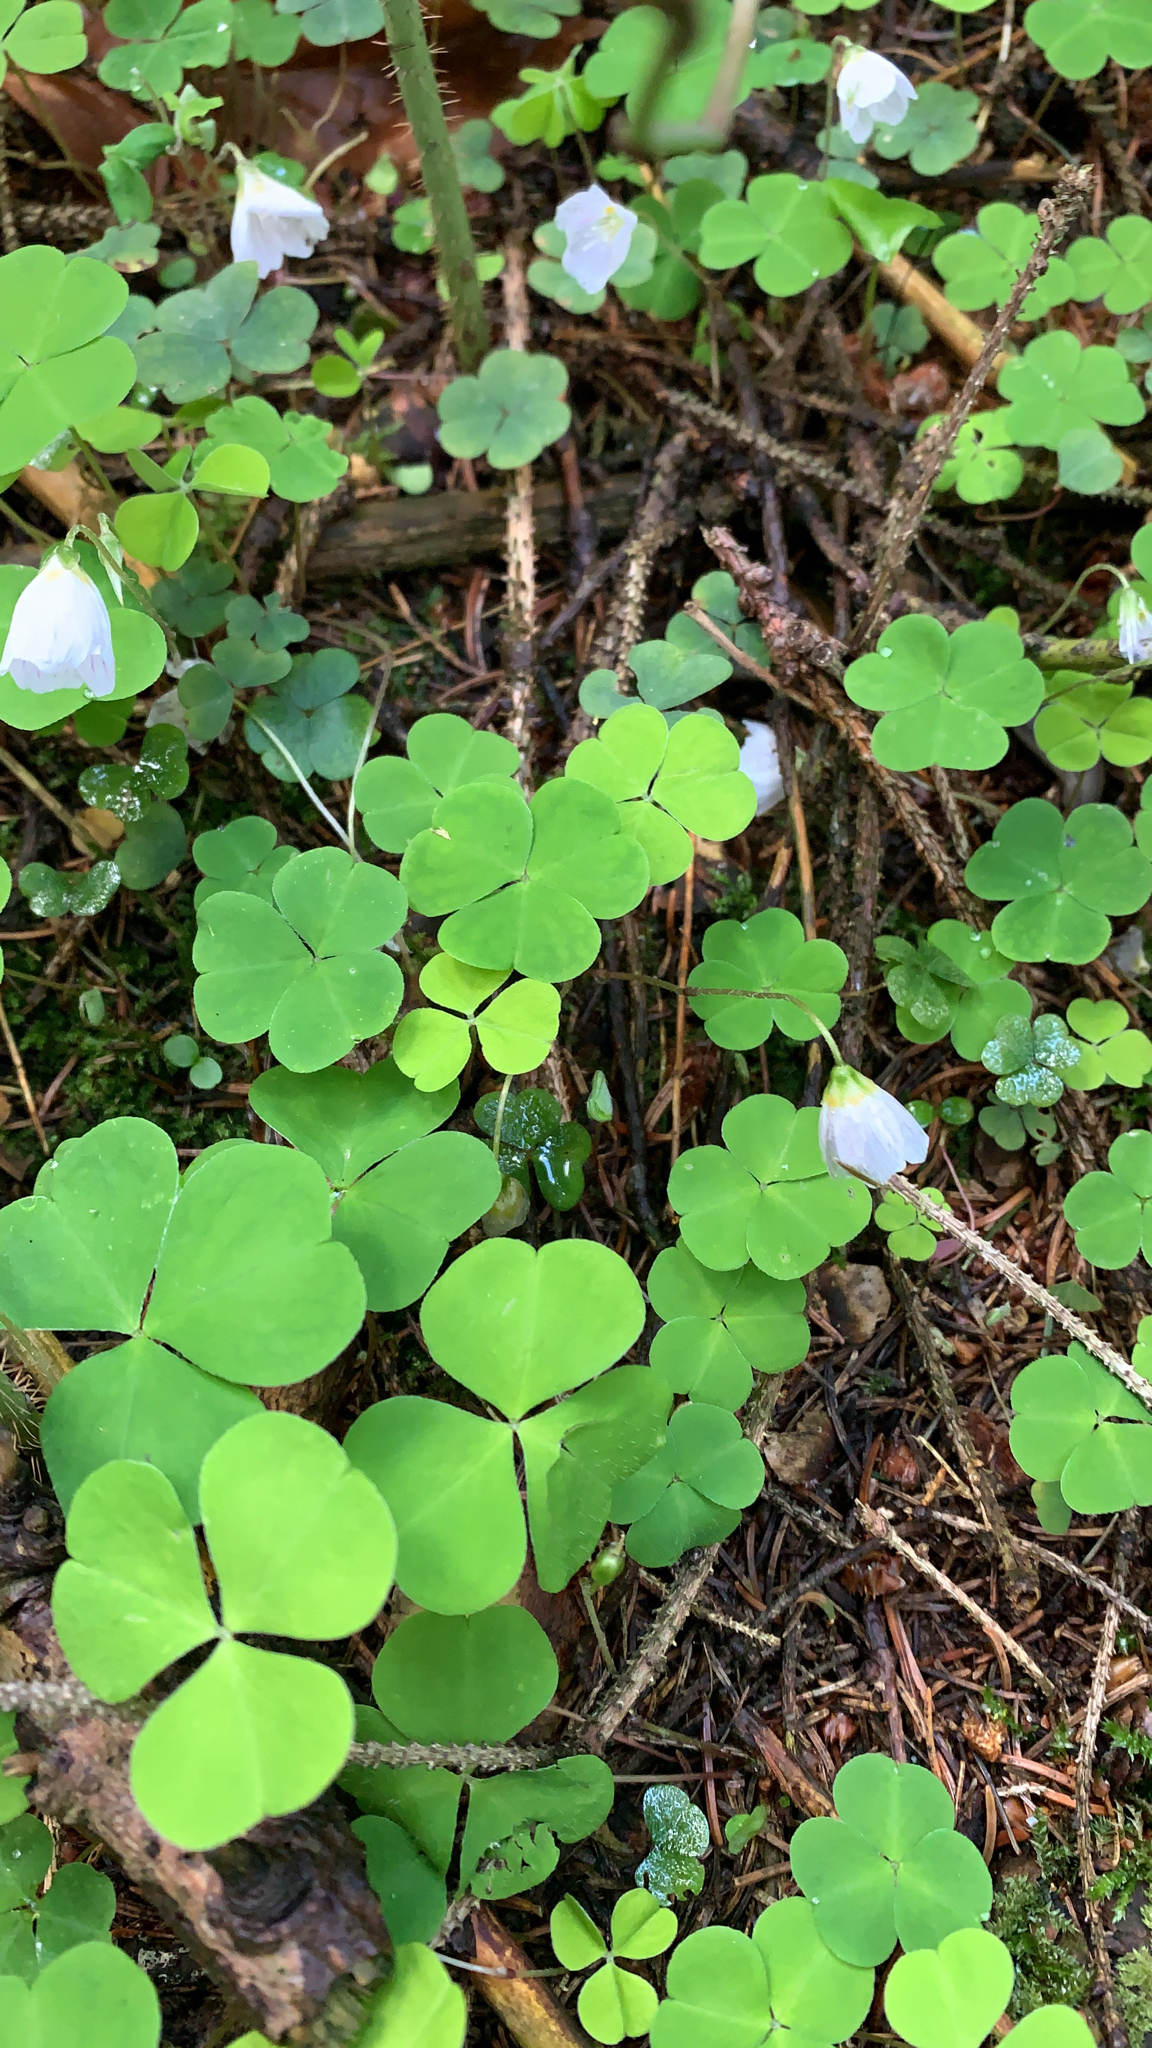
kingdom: Plantae
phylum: Tracheophyta
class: Magnoliopsida
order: Oxalidales
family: Oxalidaceae
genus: Oxalis
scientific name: Oxalis acetosella
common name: Wood-sorrel
